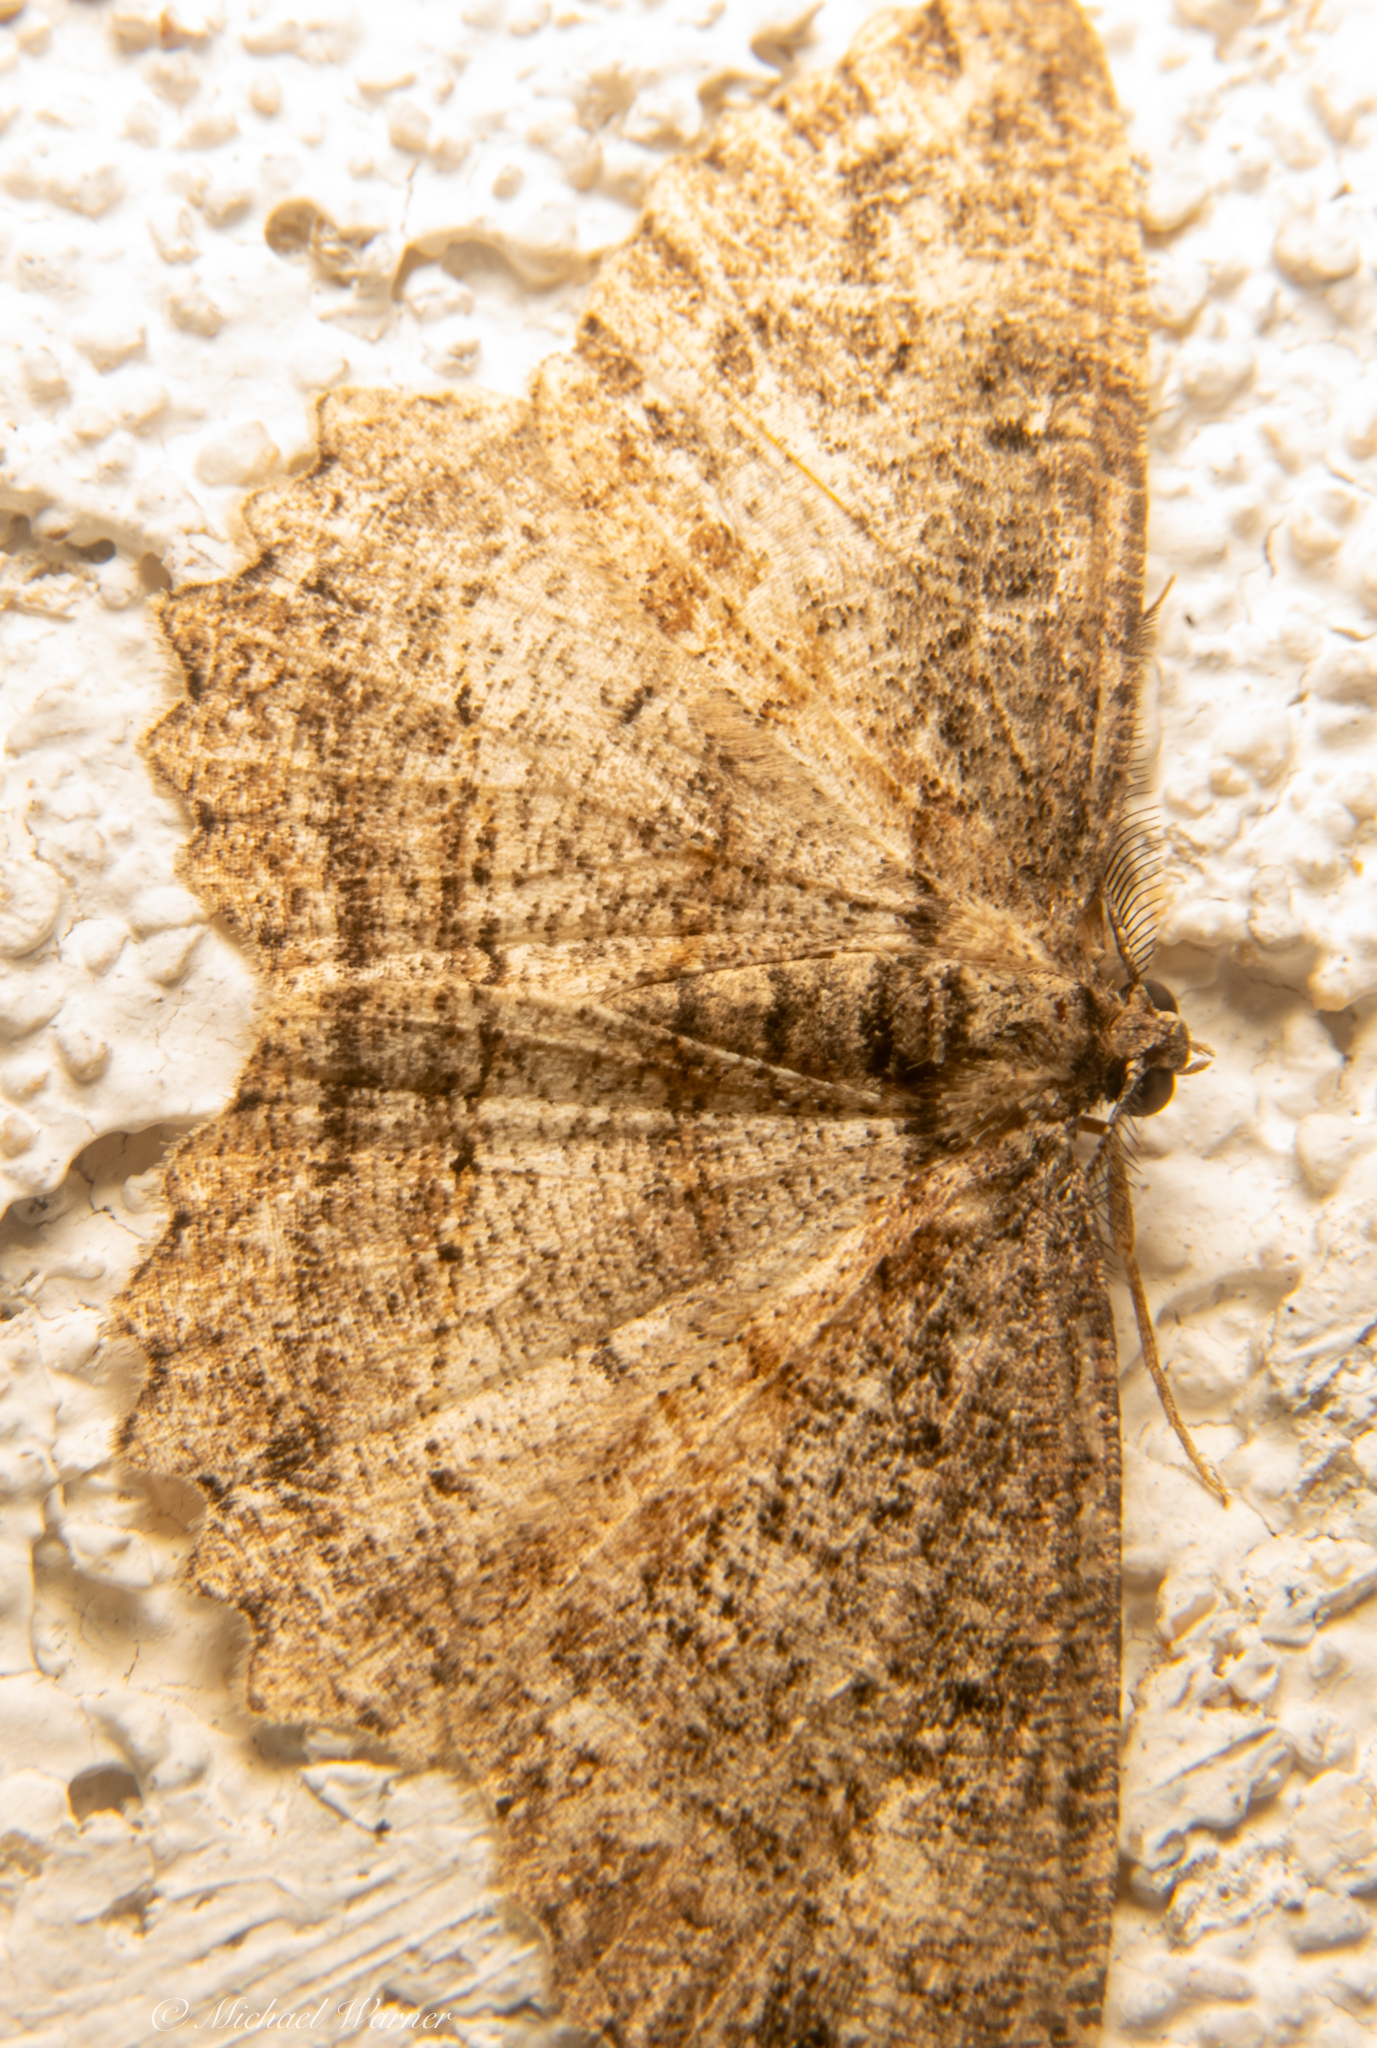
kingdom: Animalia
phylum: Arthropoda
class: Insecta
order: Lepidoptera
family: Geometridae
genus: Neoalcis
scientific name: Neoalcis californiaria
